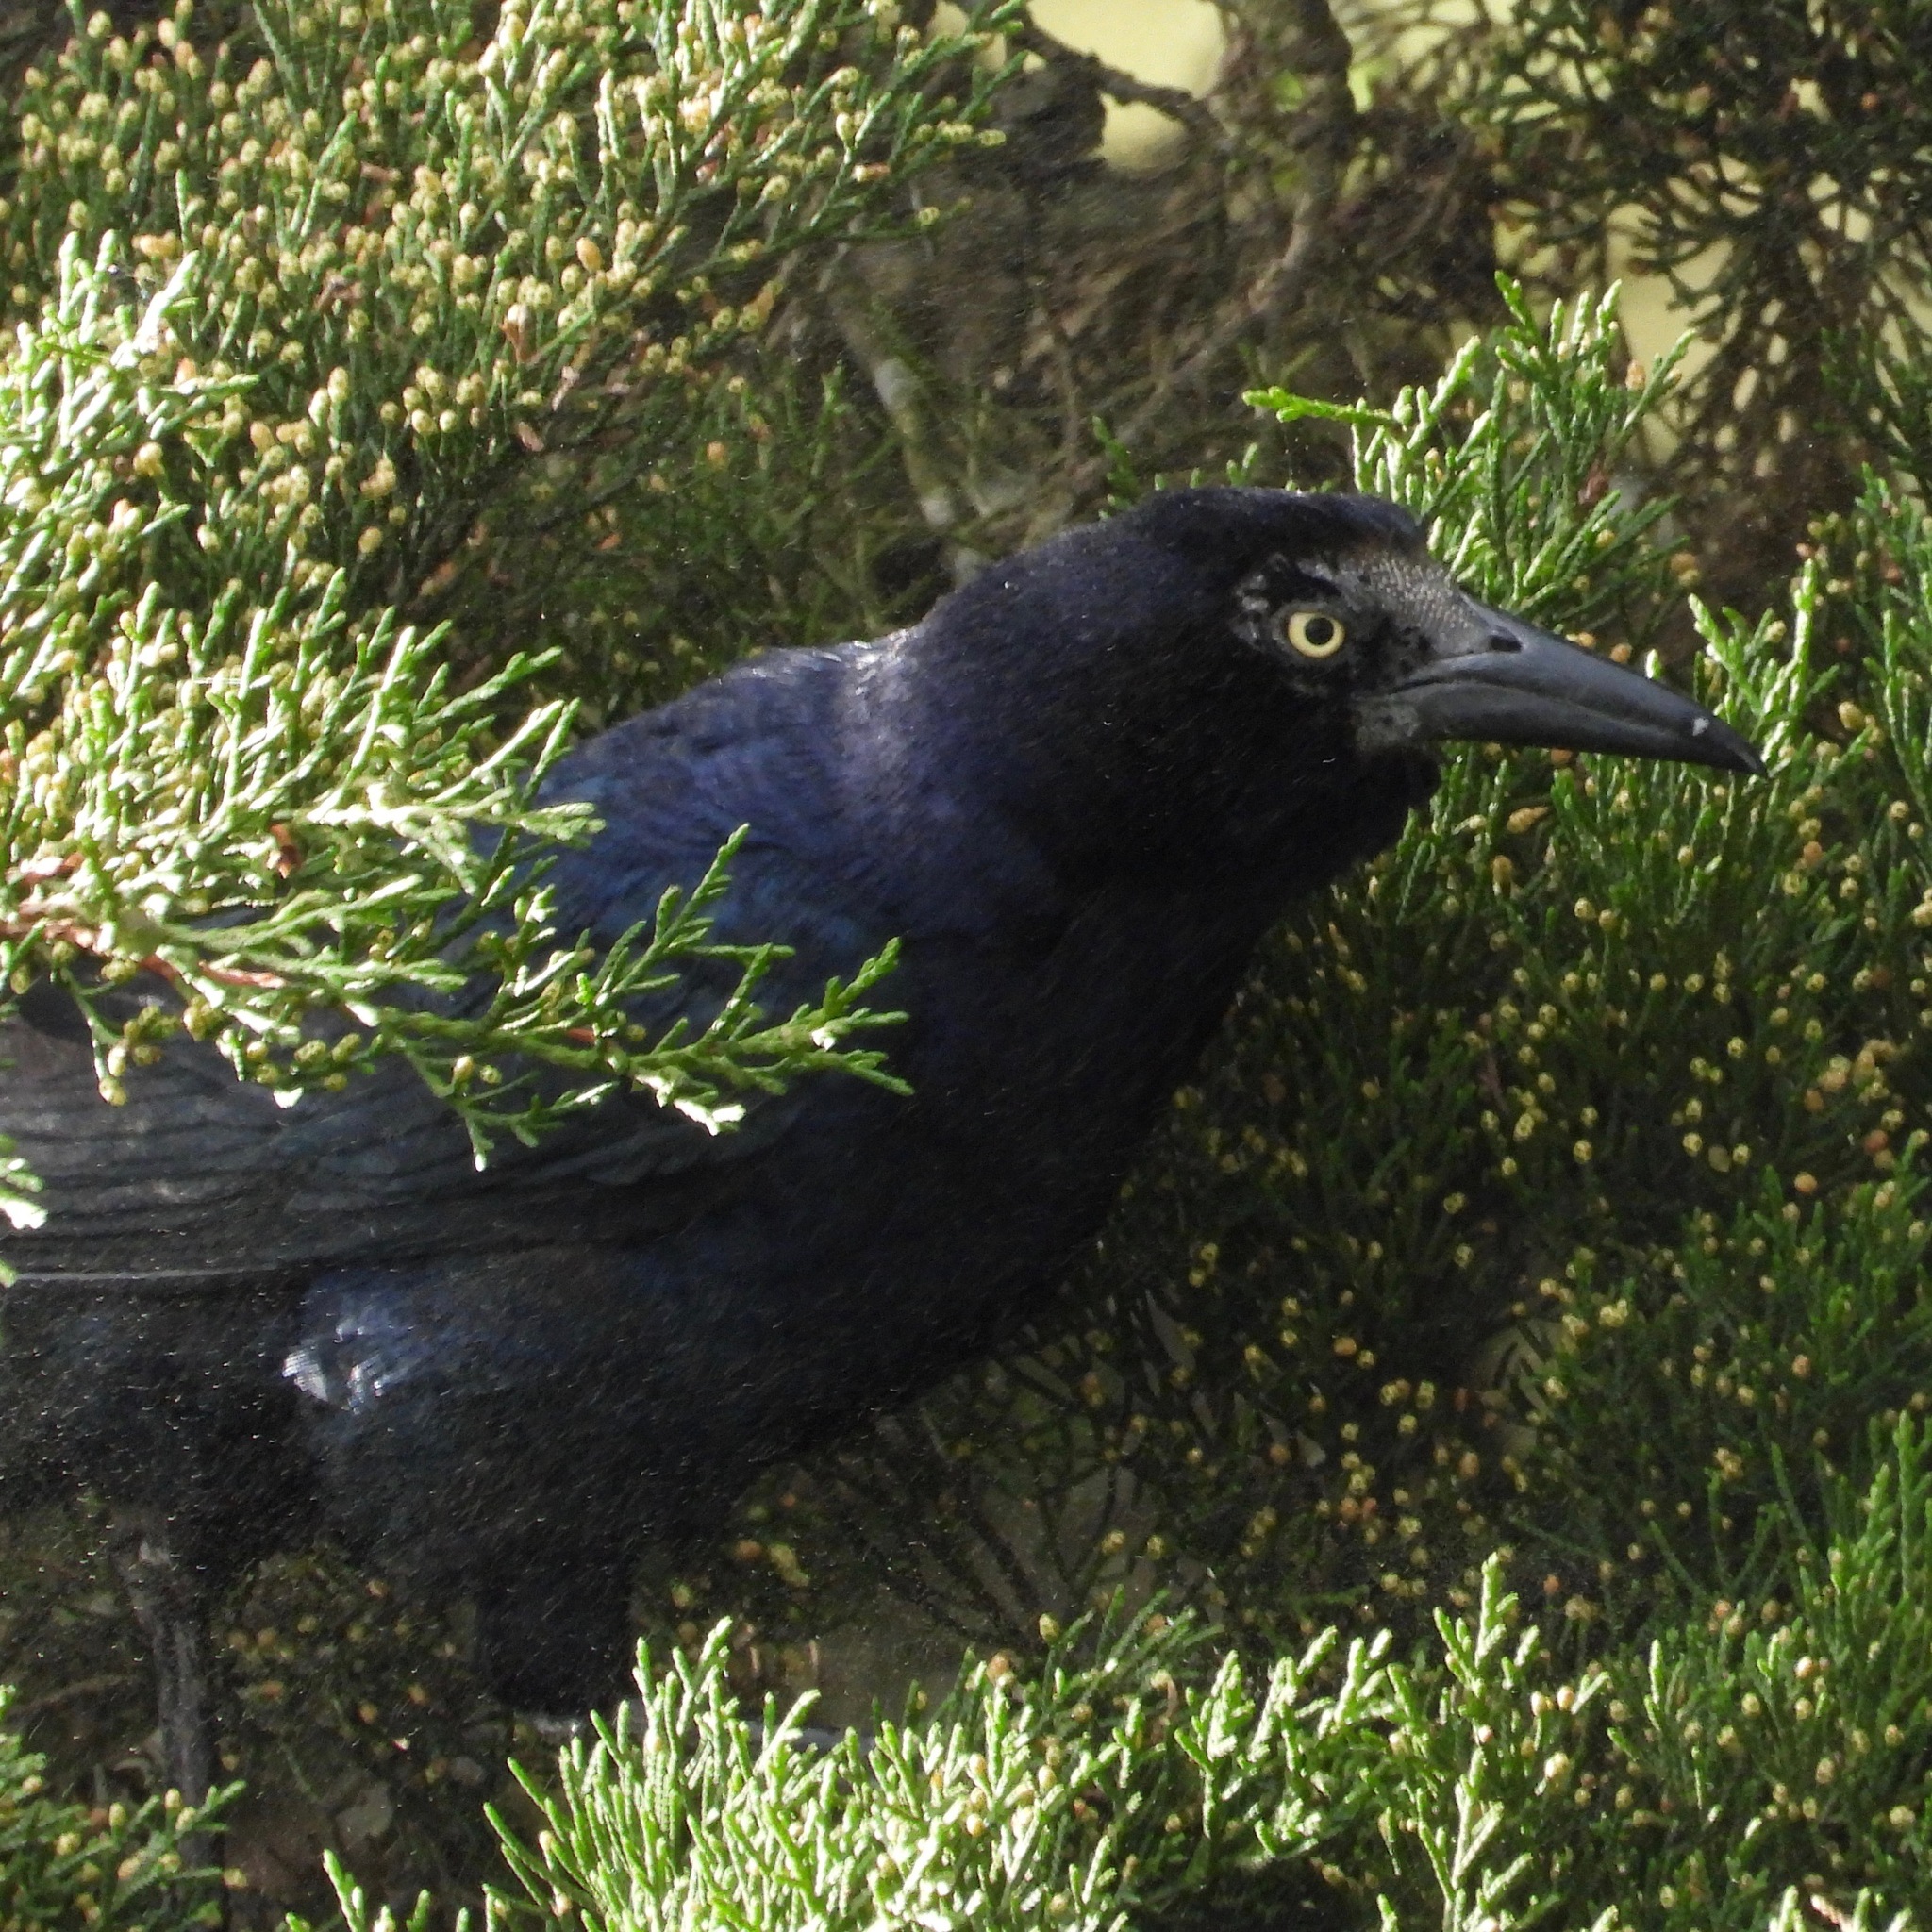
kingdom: Animalia
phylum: Chordata
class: Aves
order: Passeriformes
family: Icteridae
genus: Quiscalus
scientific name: Quiscalus mexicanus
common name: Great-tailed grackle
